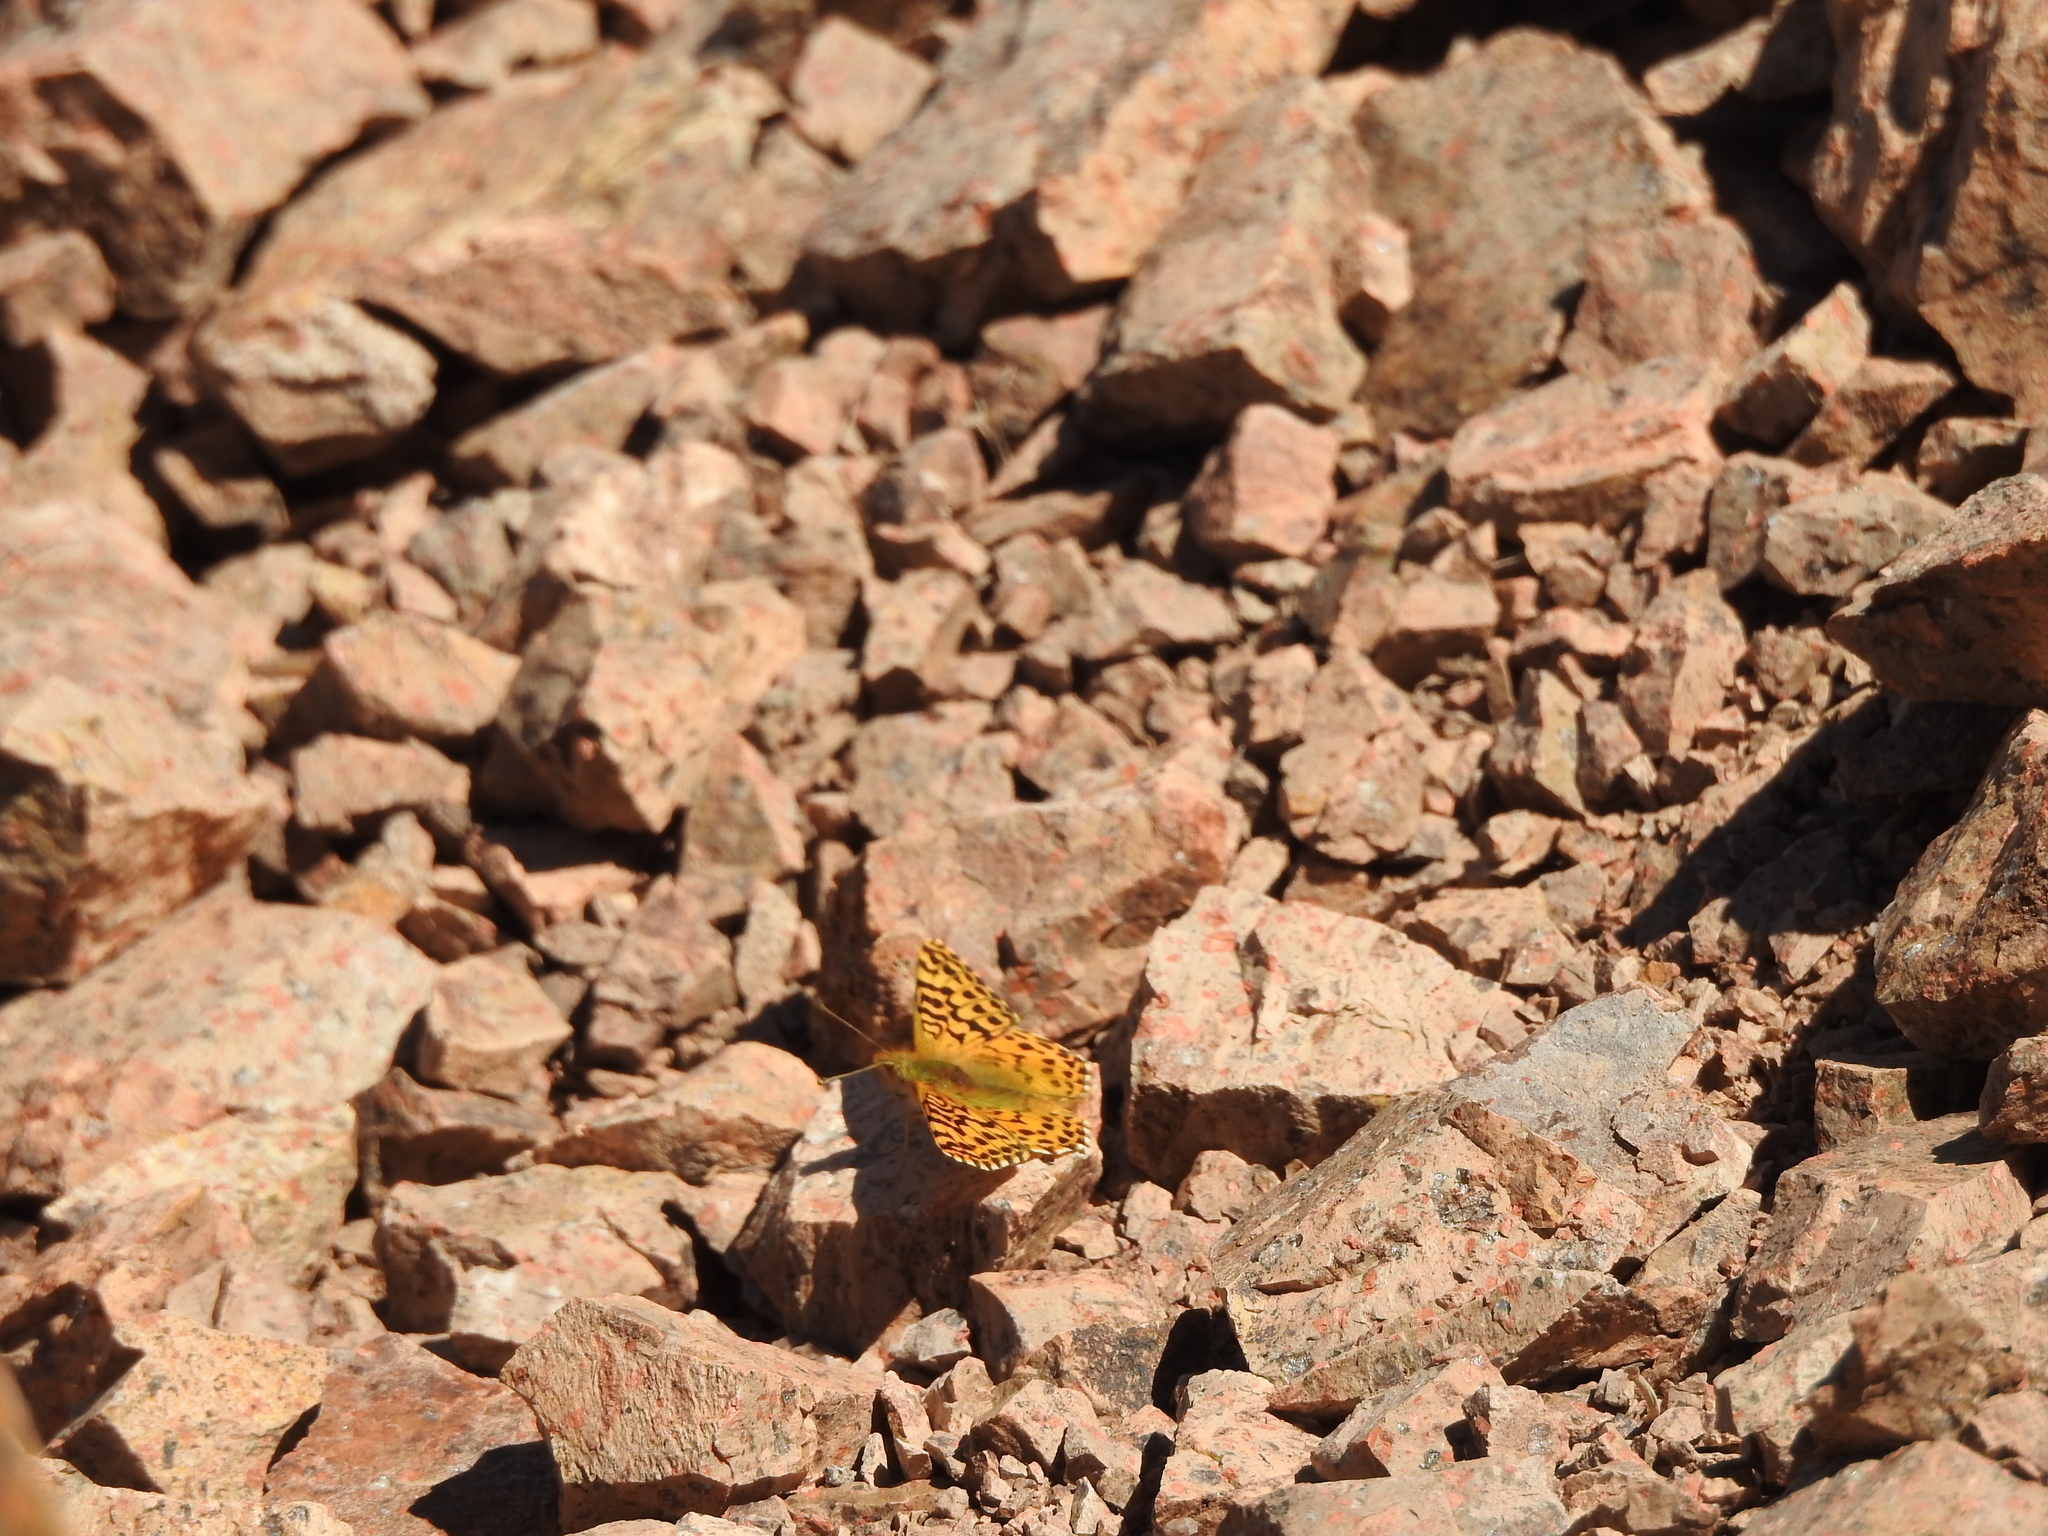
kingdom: Animalia
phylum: Arthropoda
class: Insecta
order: Lepidoptera
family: Nymphalidae
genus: Issoria
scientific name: Issoria Yramea lathonoides
